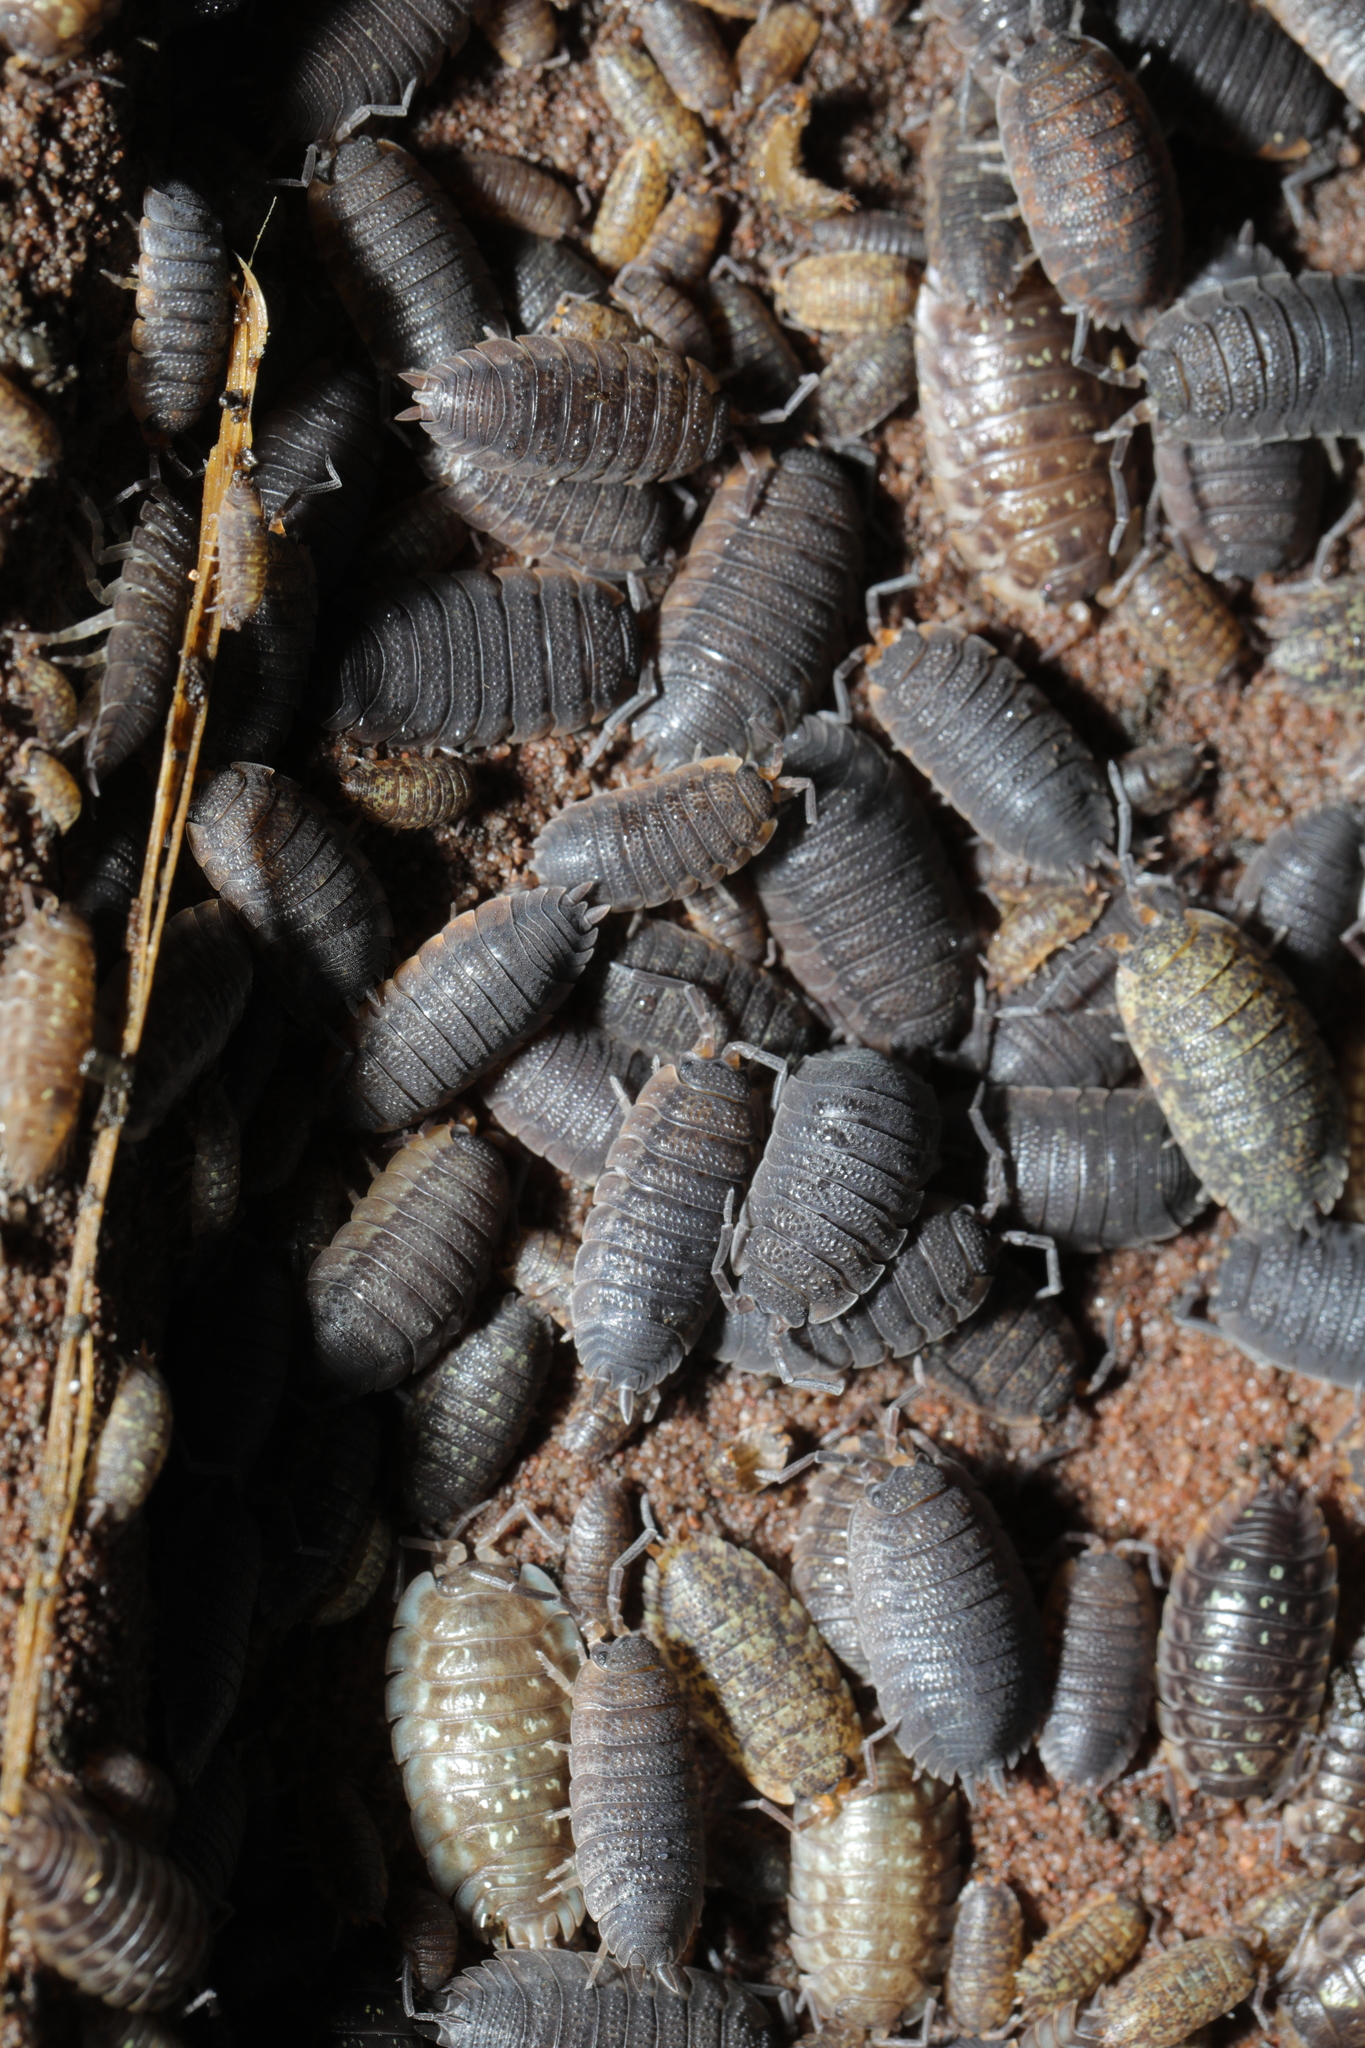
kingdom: Animalia
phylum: Arthropoda
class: Malacostraca
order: Isopoda
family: Porcellionidae
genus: Porcellio
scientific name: Porcellio scaber
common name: Common rough woodlouse
